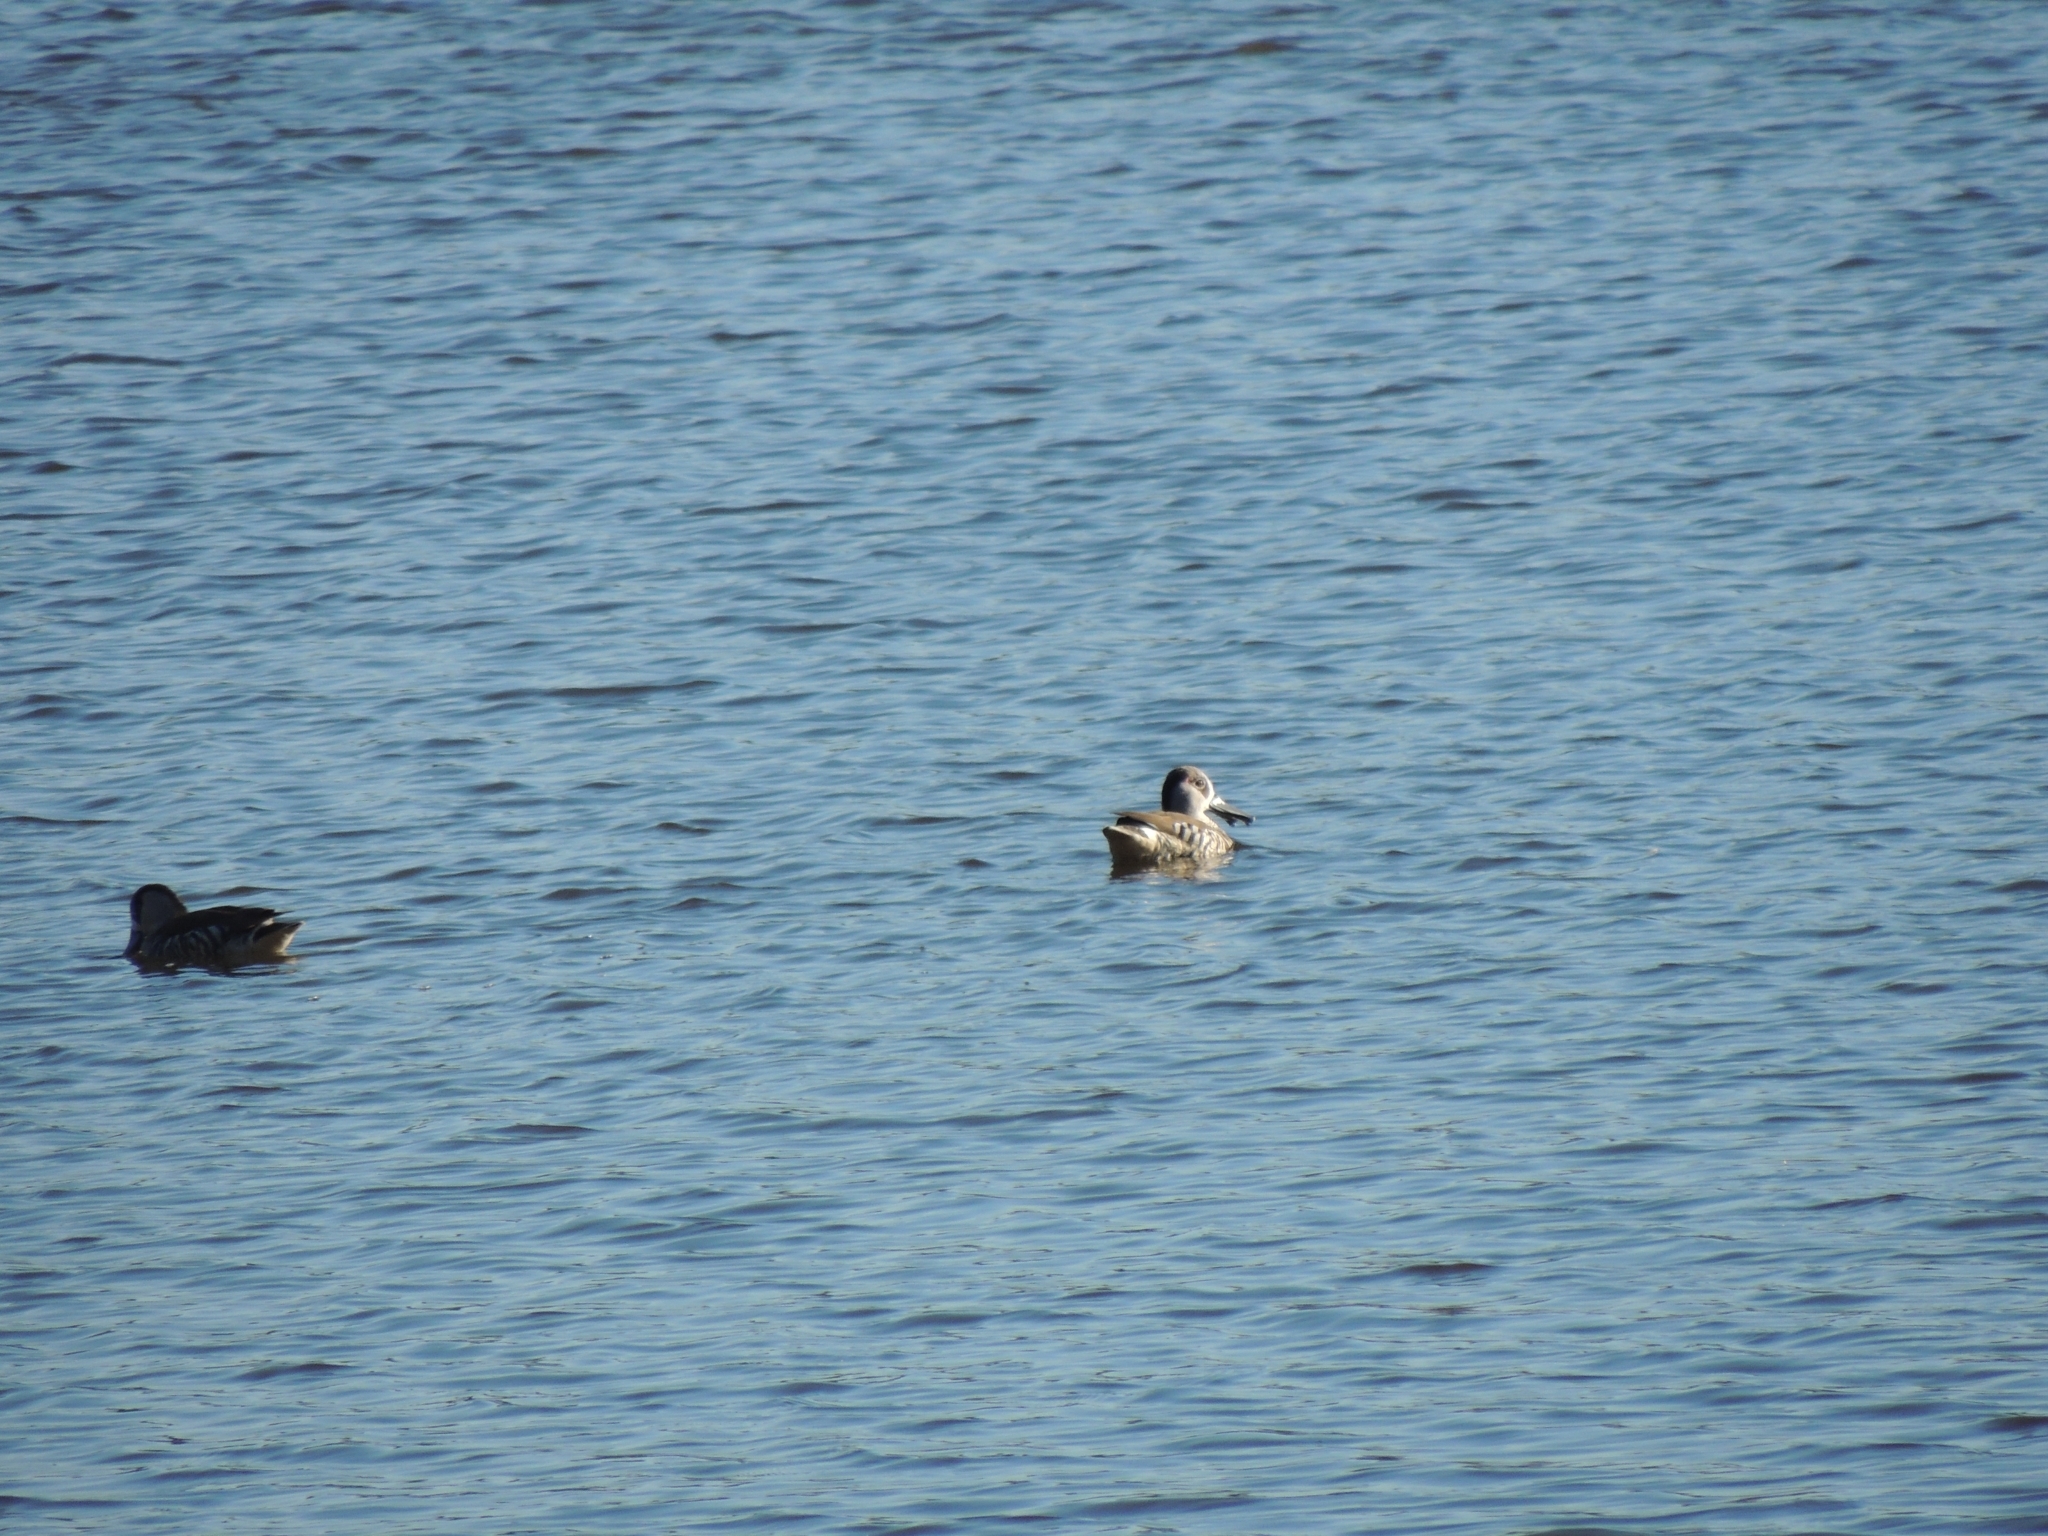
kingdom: Animalia
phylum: Chordata
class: Aves
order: Anseriformes
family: Anatidae
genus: Malacorhynchus
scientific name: Malacorhynchus membranaceus
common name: Pink-eared duck
